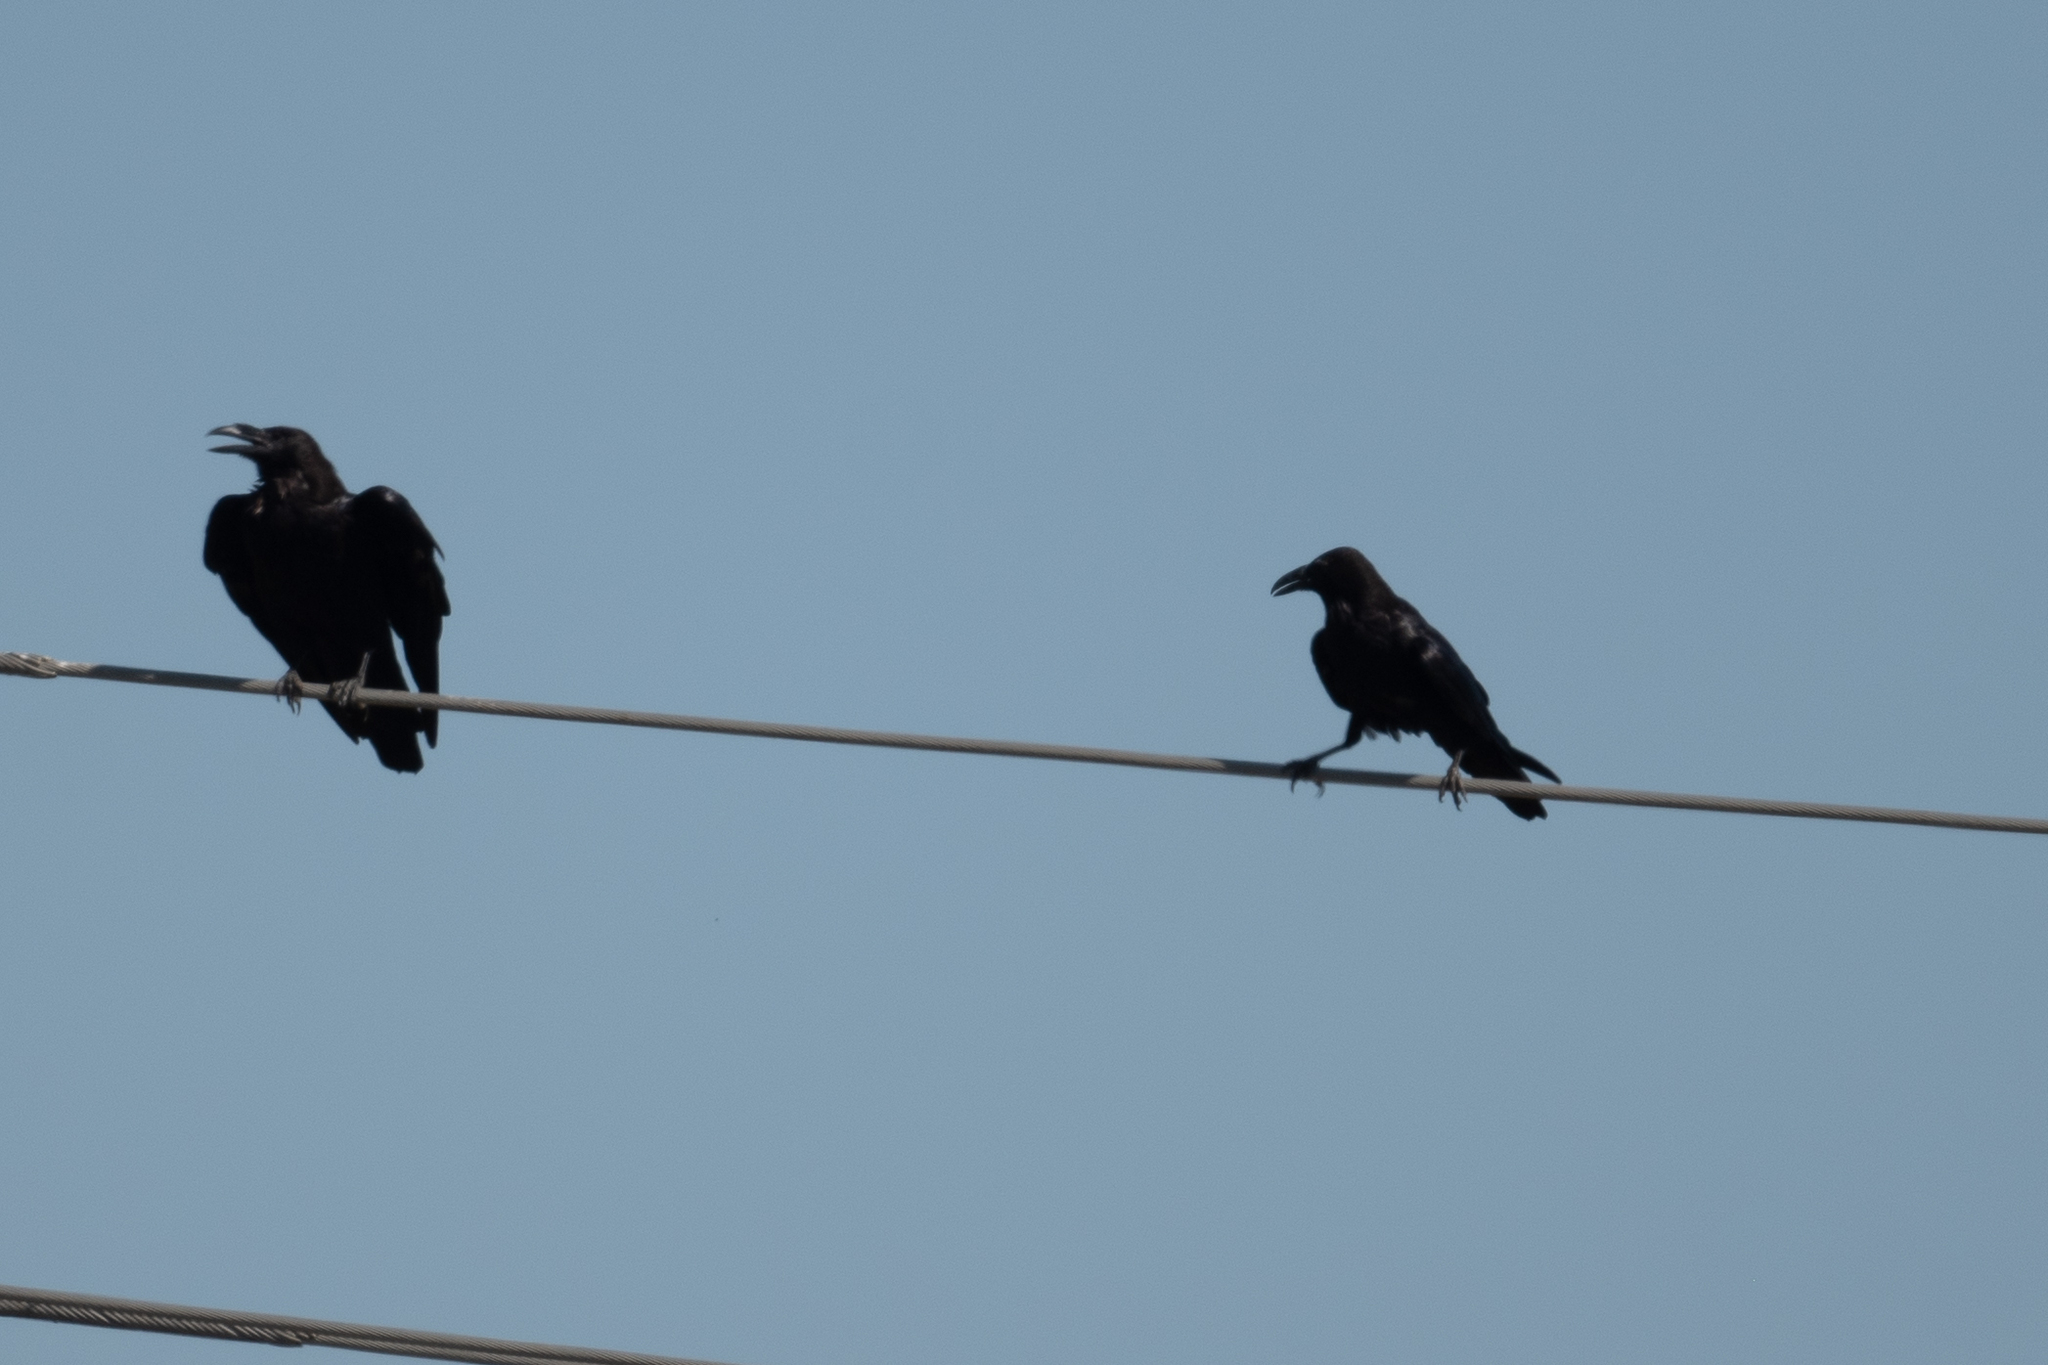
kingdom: Animalia
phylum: Chordata
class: Aves
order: Passeriformes
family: Corvidae
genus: Corvus
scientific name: Corvus corax
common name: Common raven
